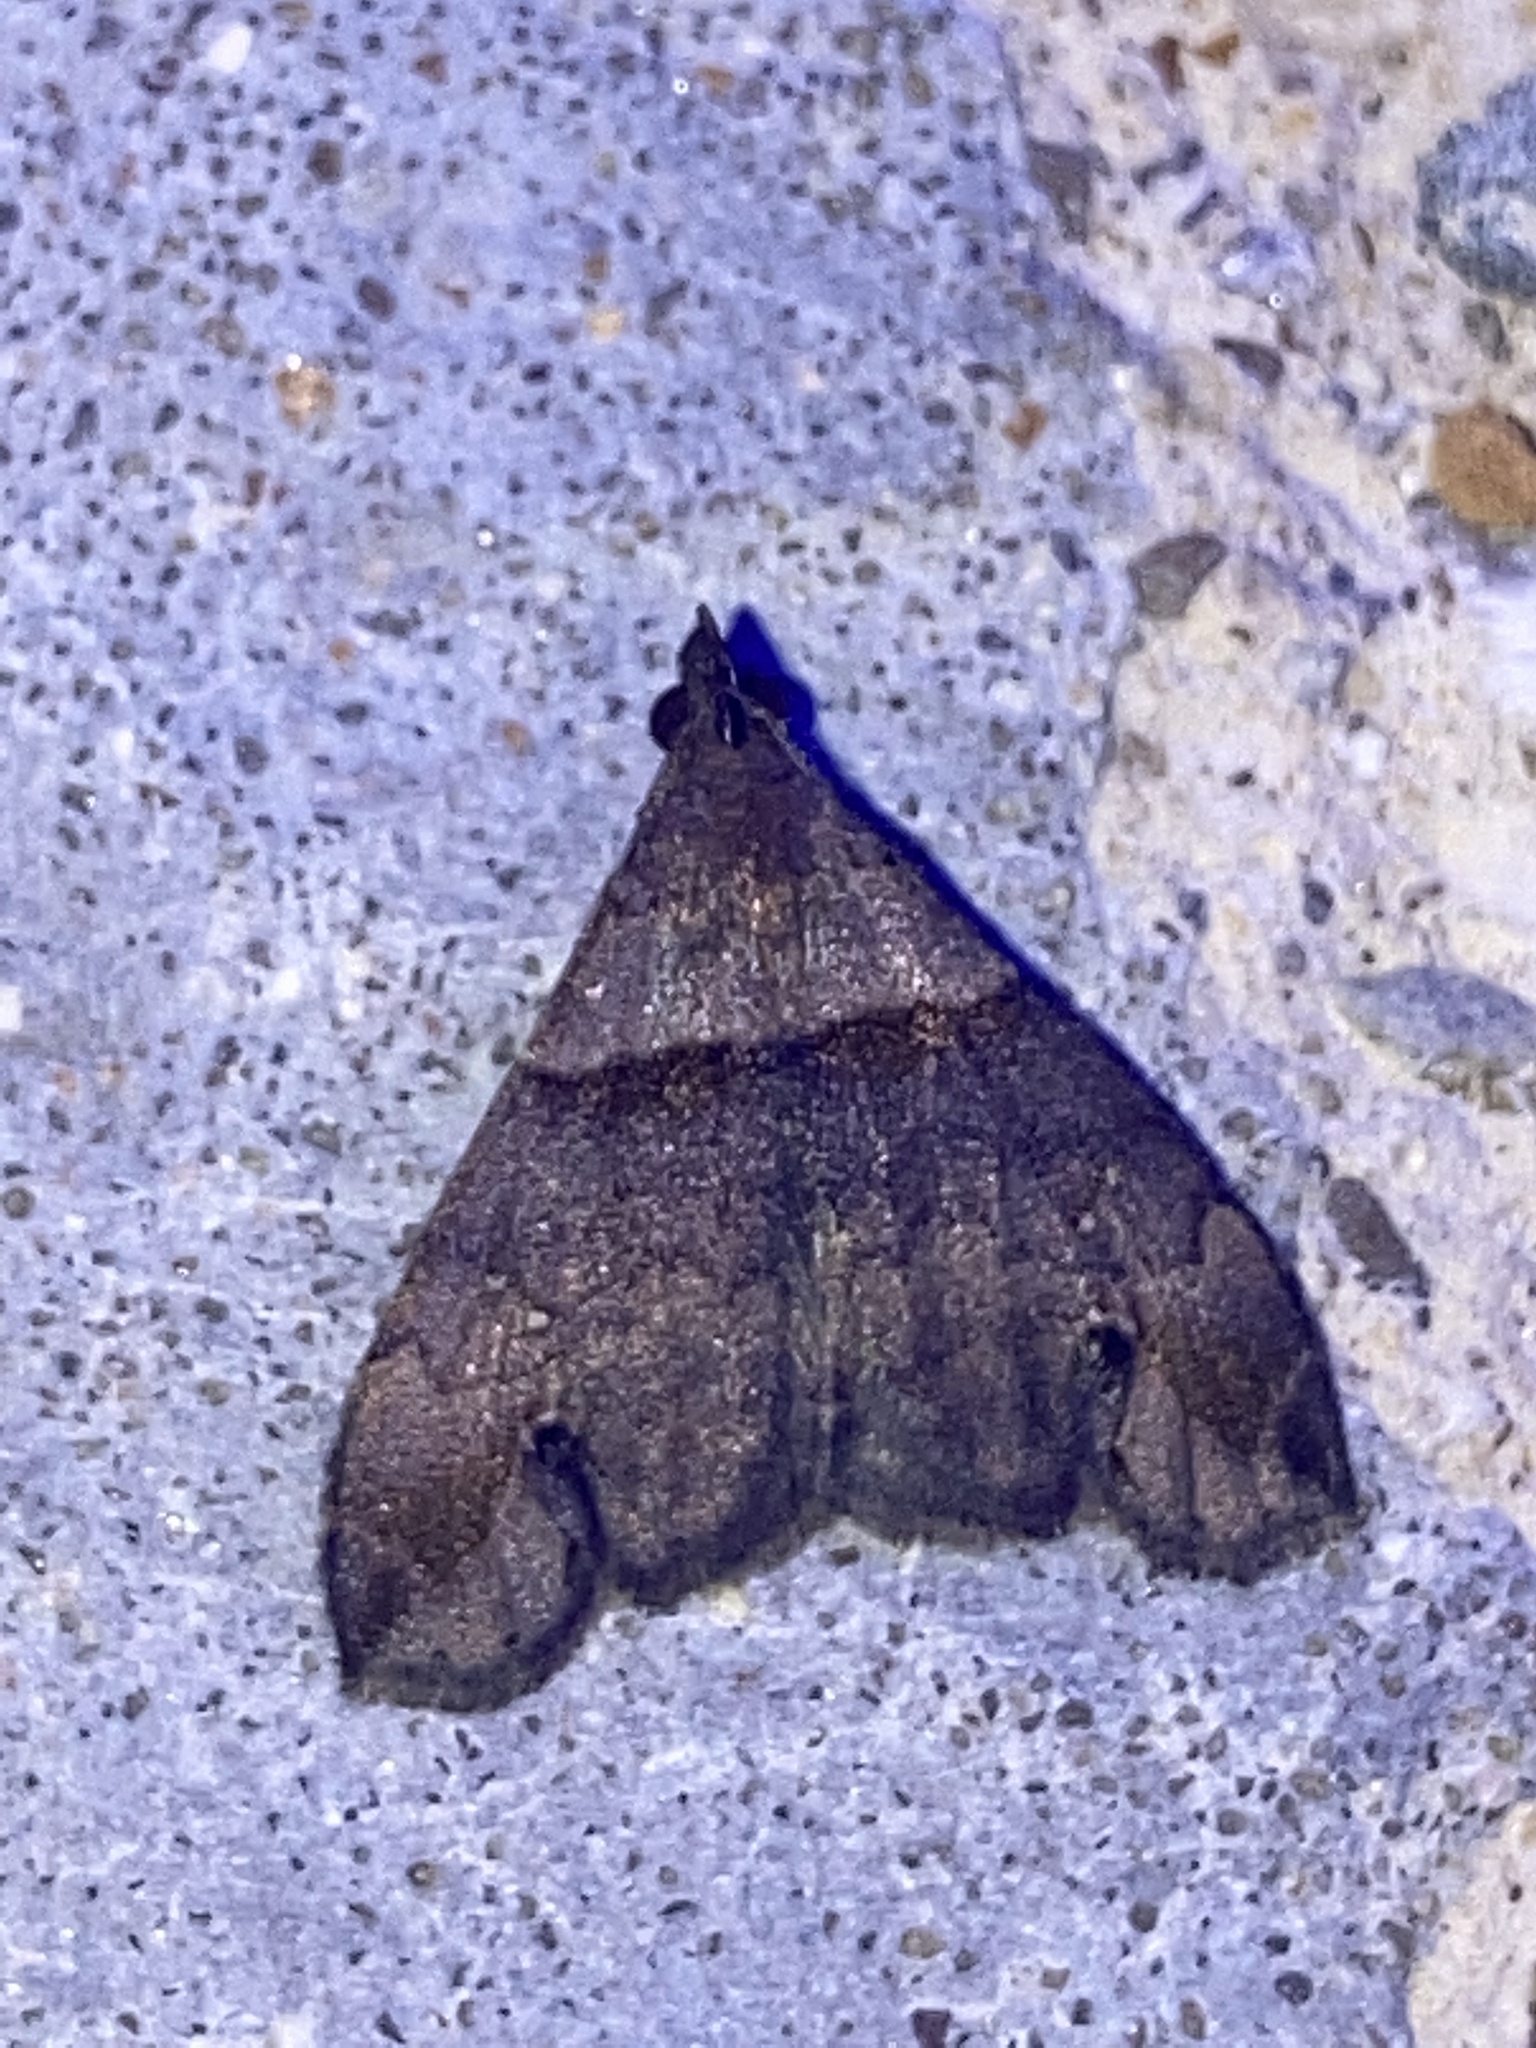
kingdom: Animalia
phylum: Arthropoda
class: Insecta
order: Lepidoptera
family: Erebidae
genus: Lascoria
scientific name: Lascoria ambigualis
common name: Ambiguous moth
